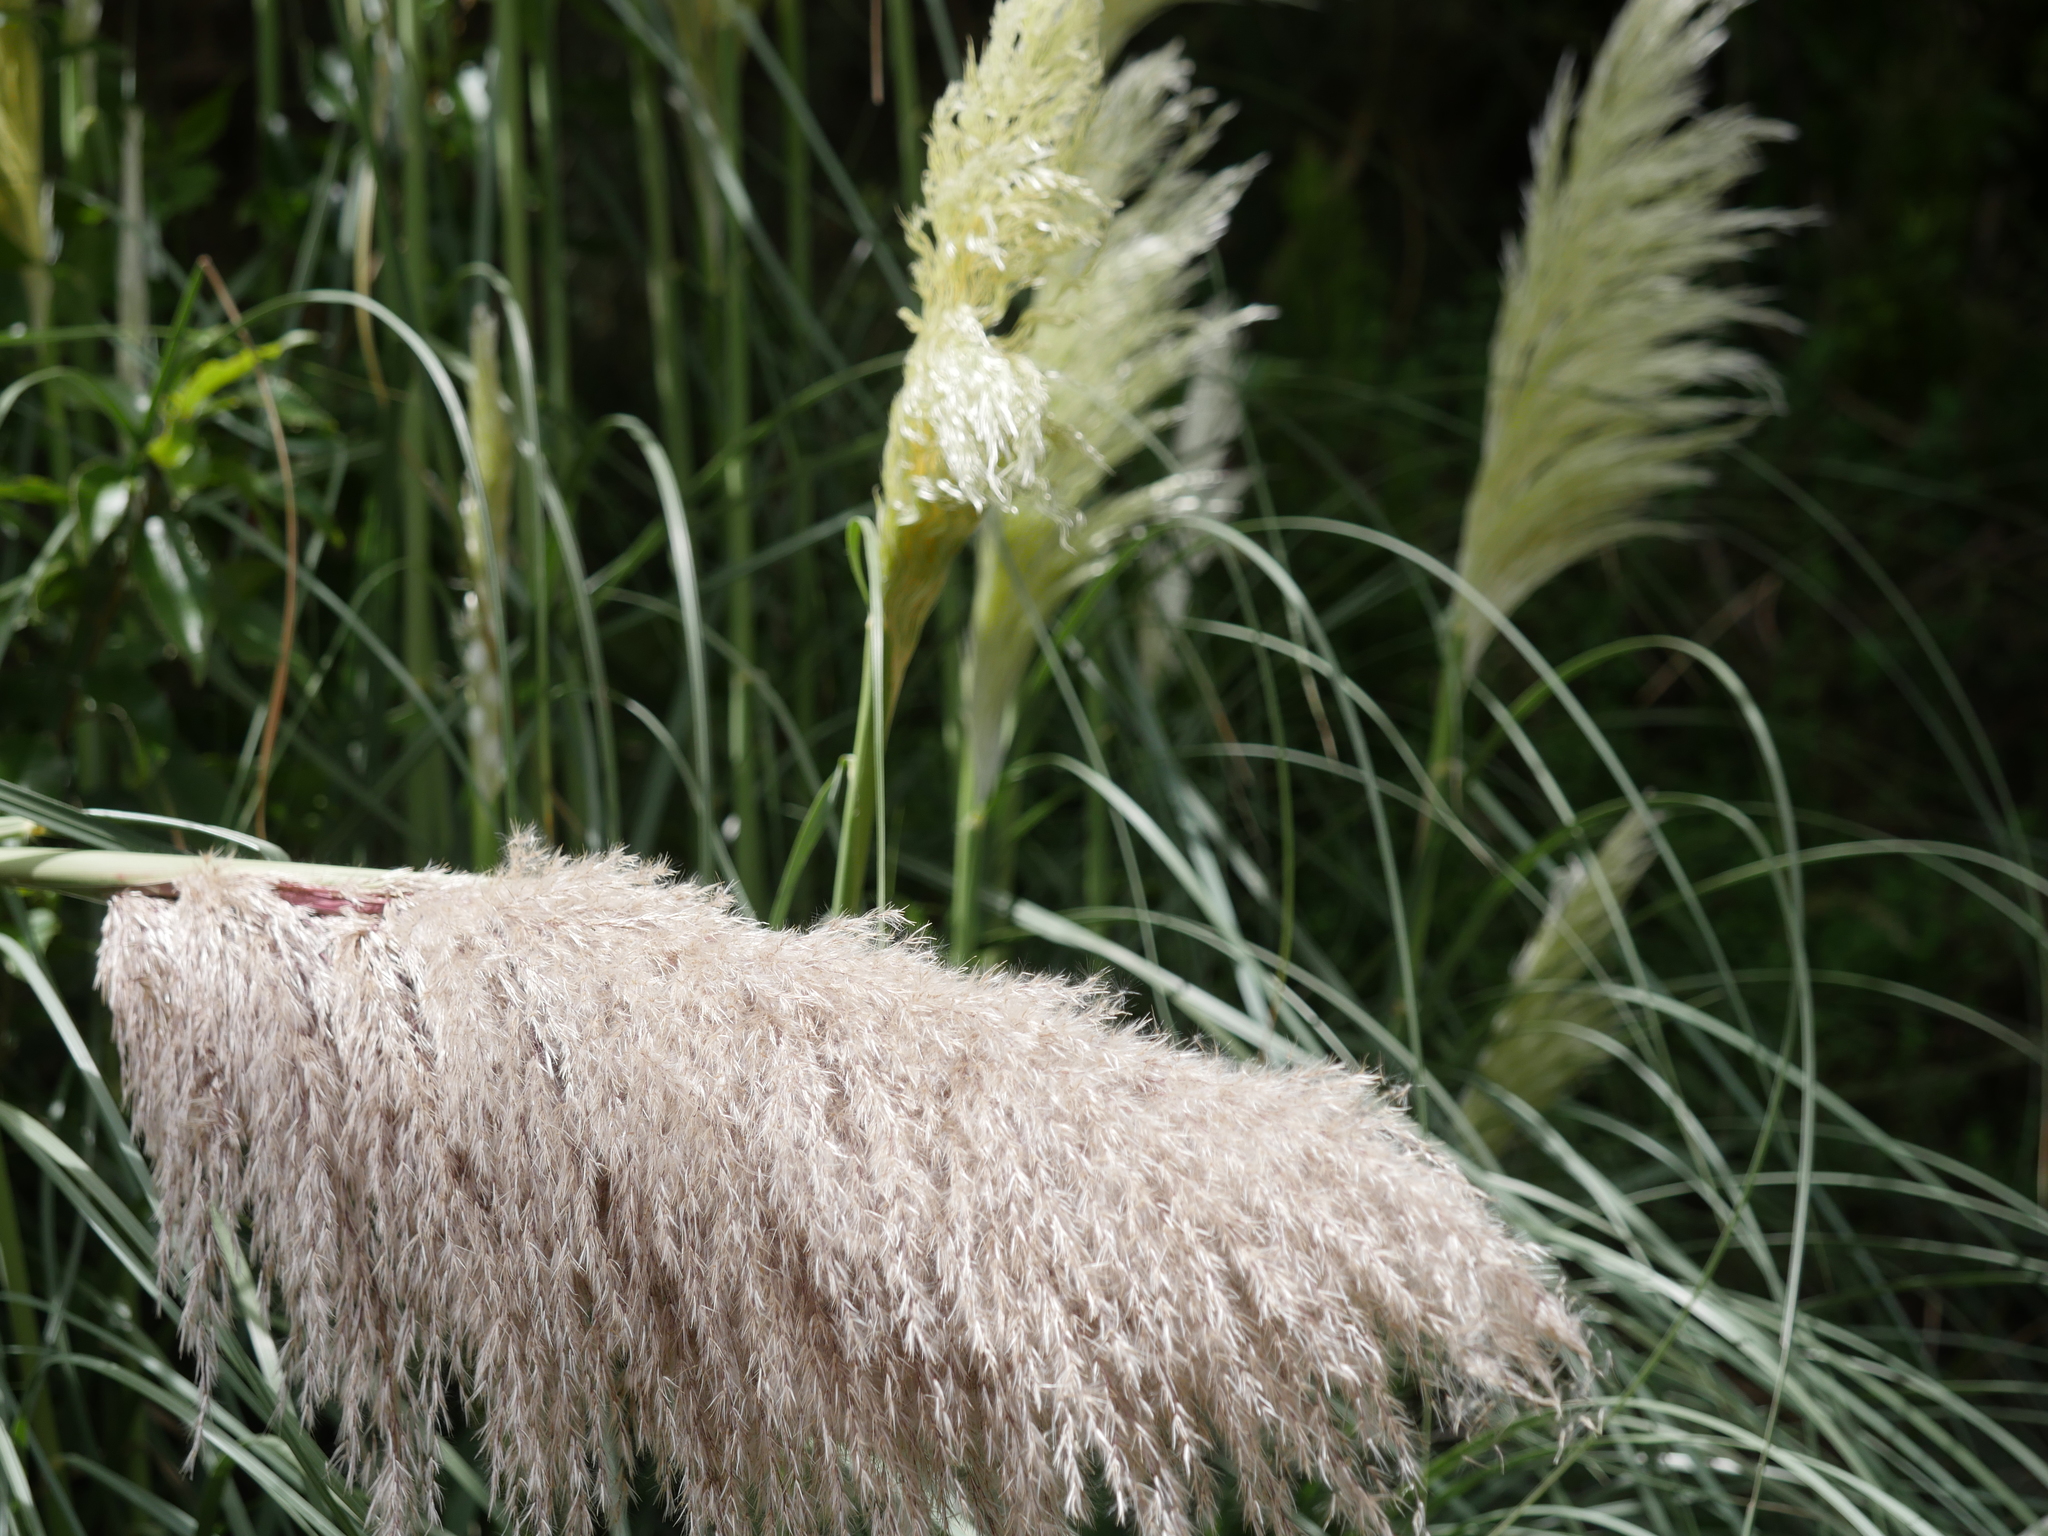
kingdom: Plantae
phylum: Tracheophyta
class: Liliopsida
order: Poales
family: Poaceae
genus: Cortaderia
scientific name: Cortaderia jubata
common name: Purple pampas grass
